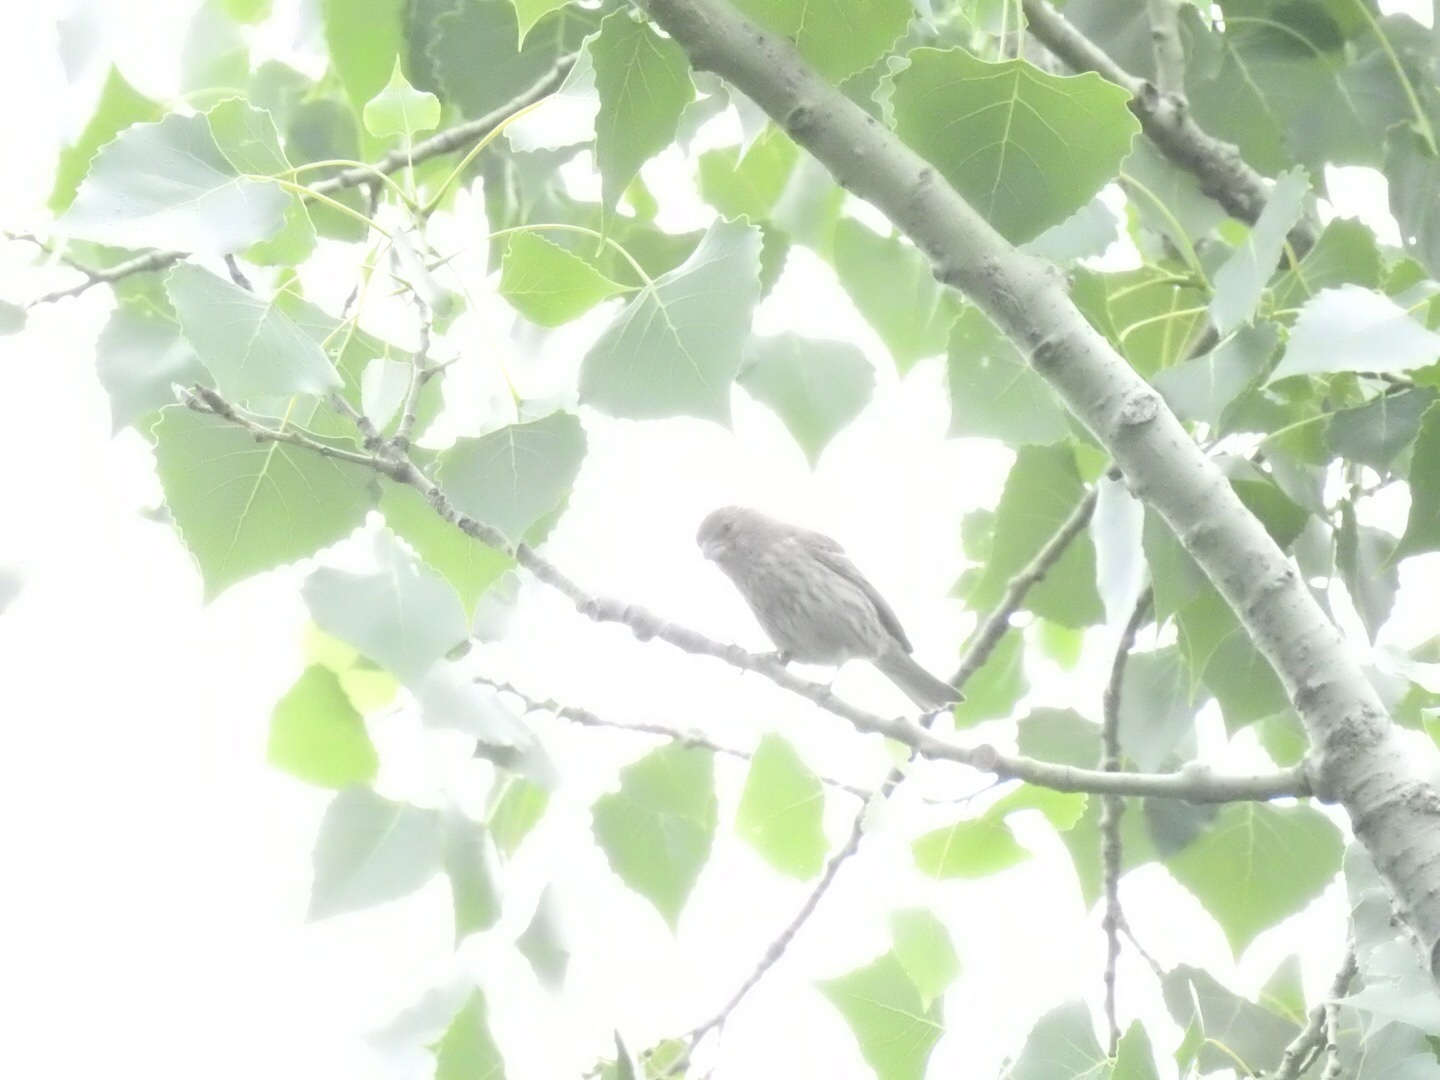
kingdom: Animalia
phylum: Chordata
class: Aves
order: Passeriformes
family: Fringillidae
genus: Haemorhous
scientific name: Haemorhous mexicanus
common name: House finch
